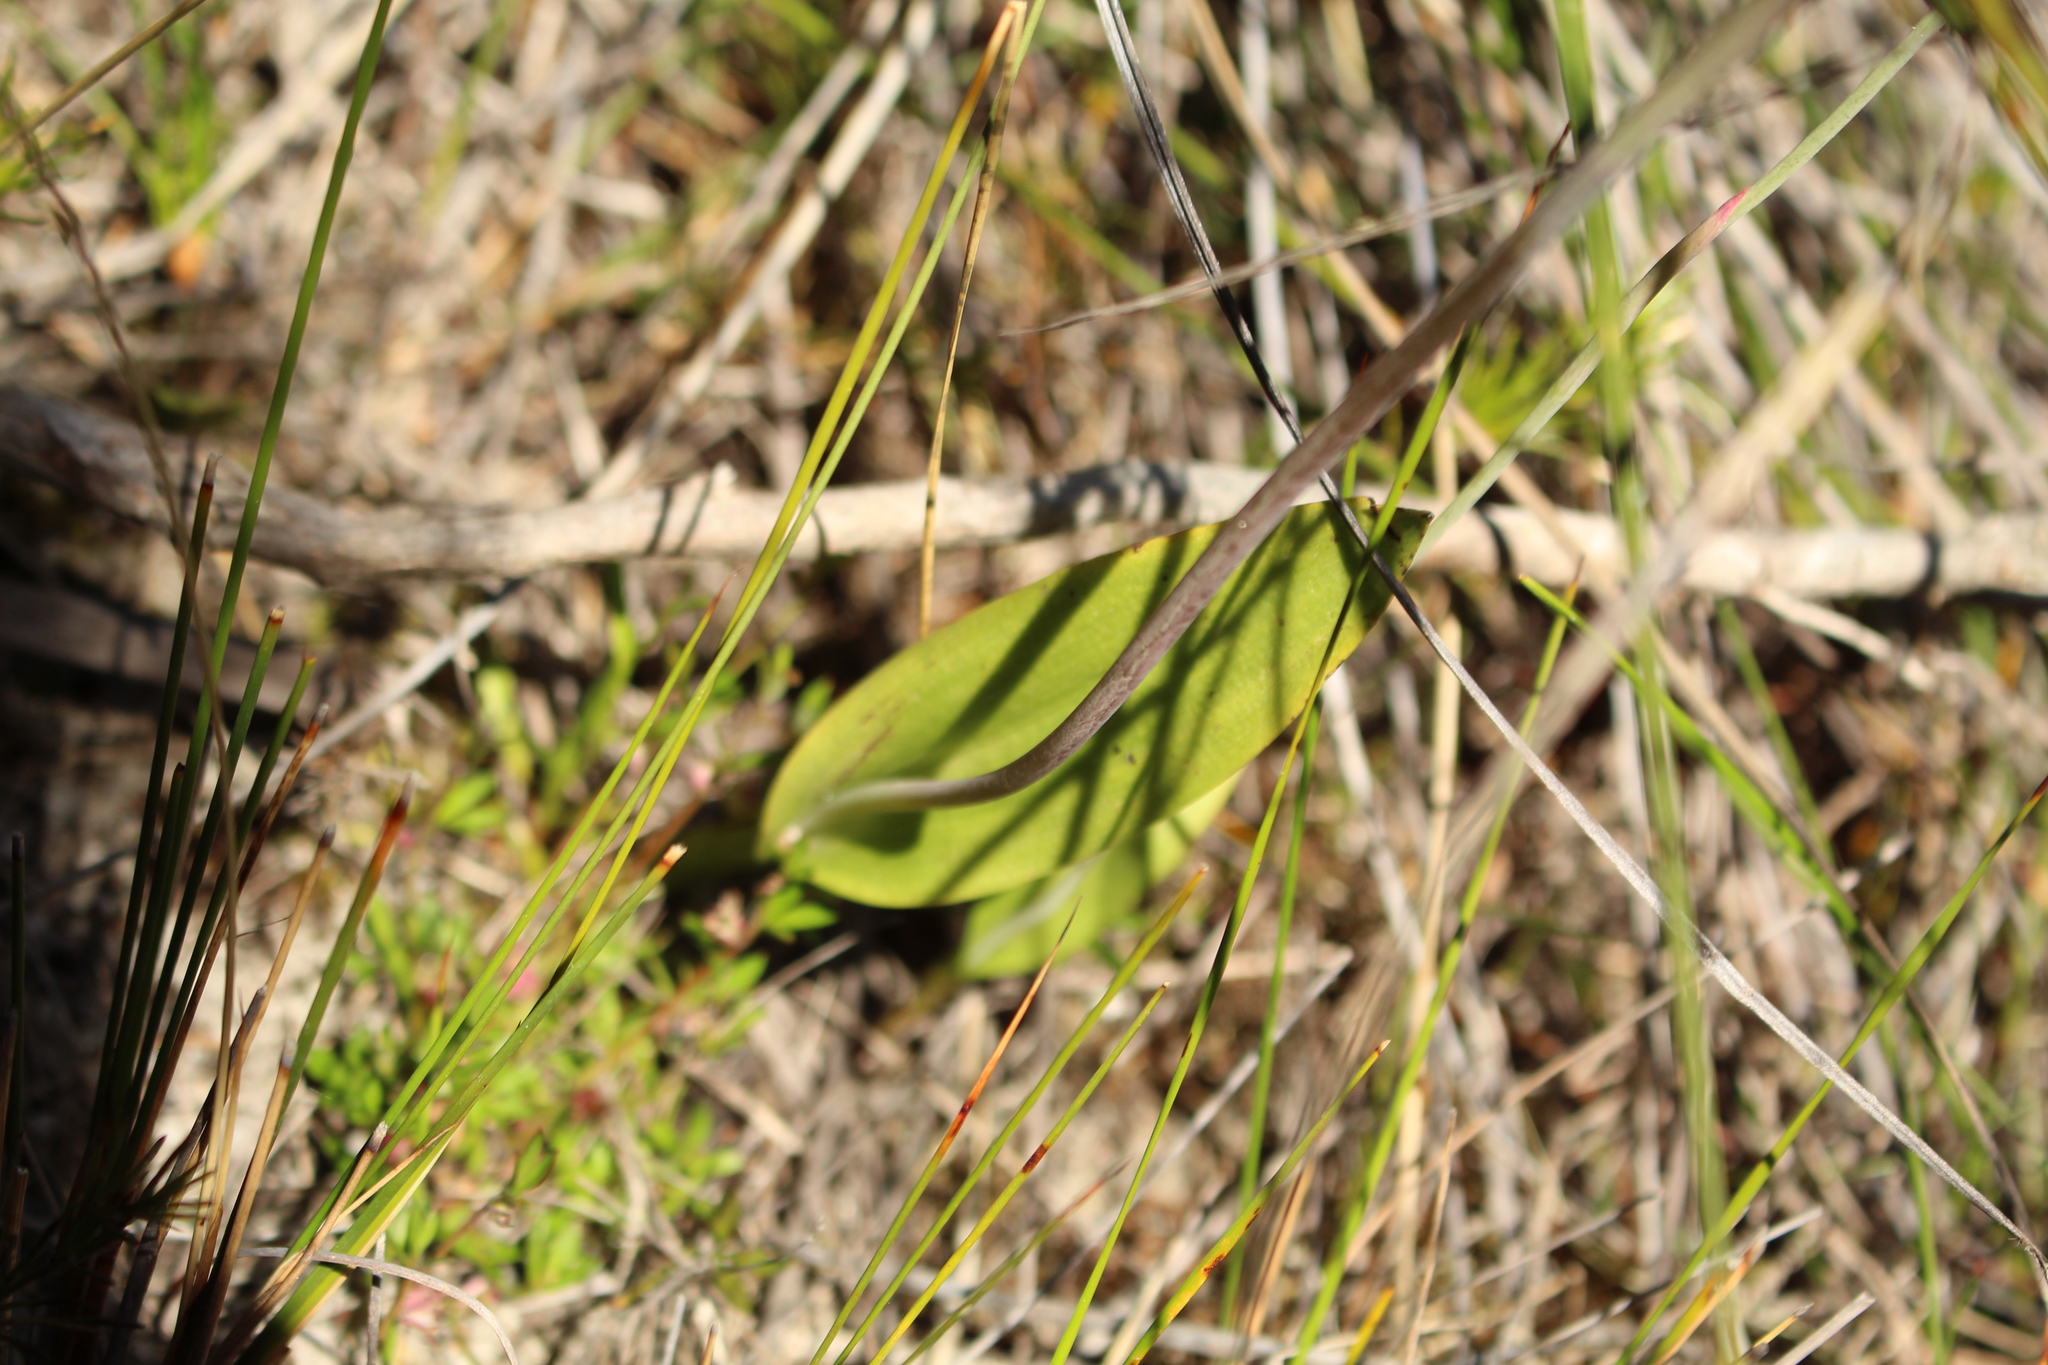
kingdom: Plantae
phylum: Tracheophyta
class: Liliopsida
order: Asparagales
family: Orchidaceae
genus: Thelymitra
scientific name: Thelymitra crinita
